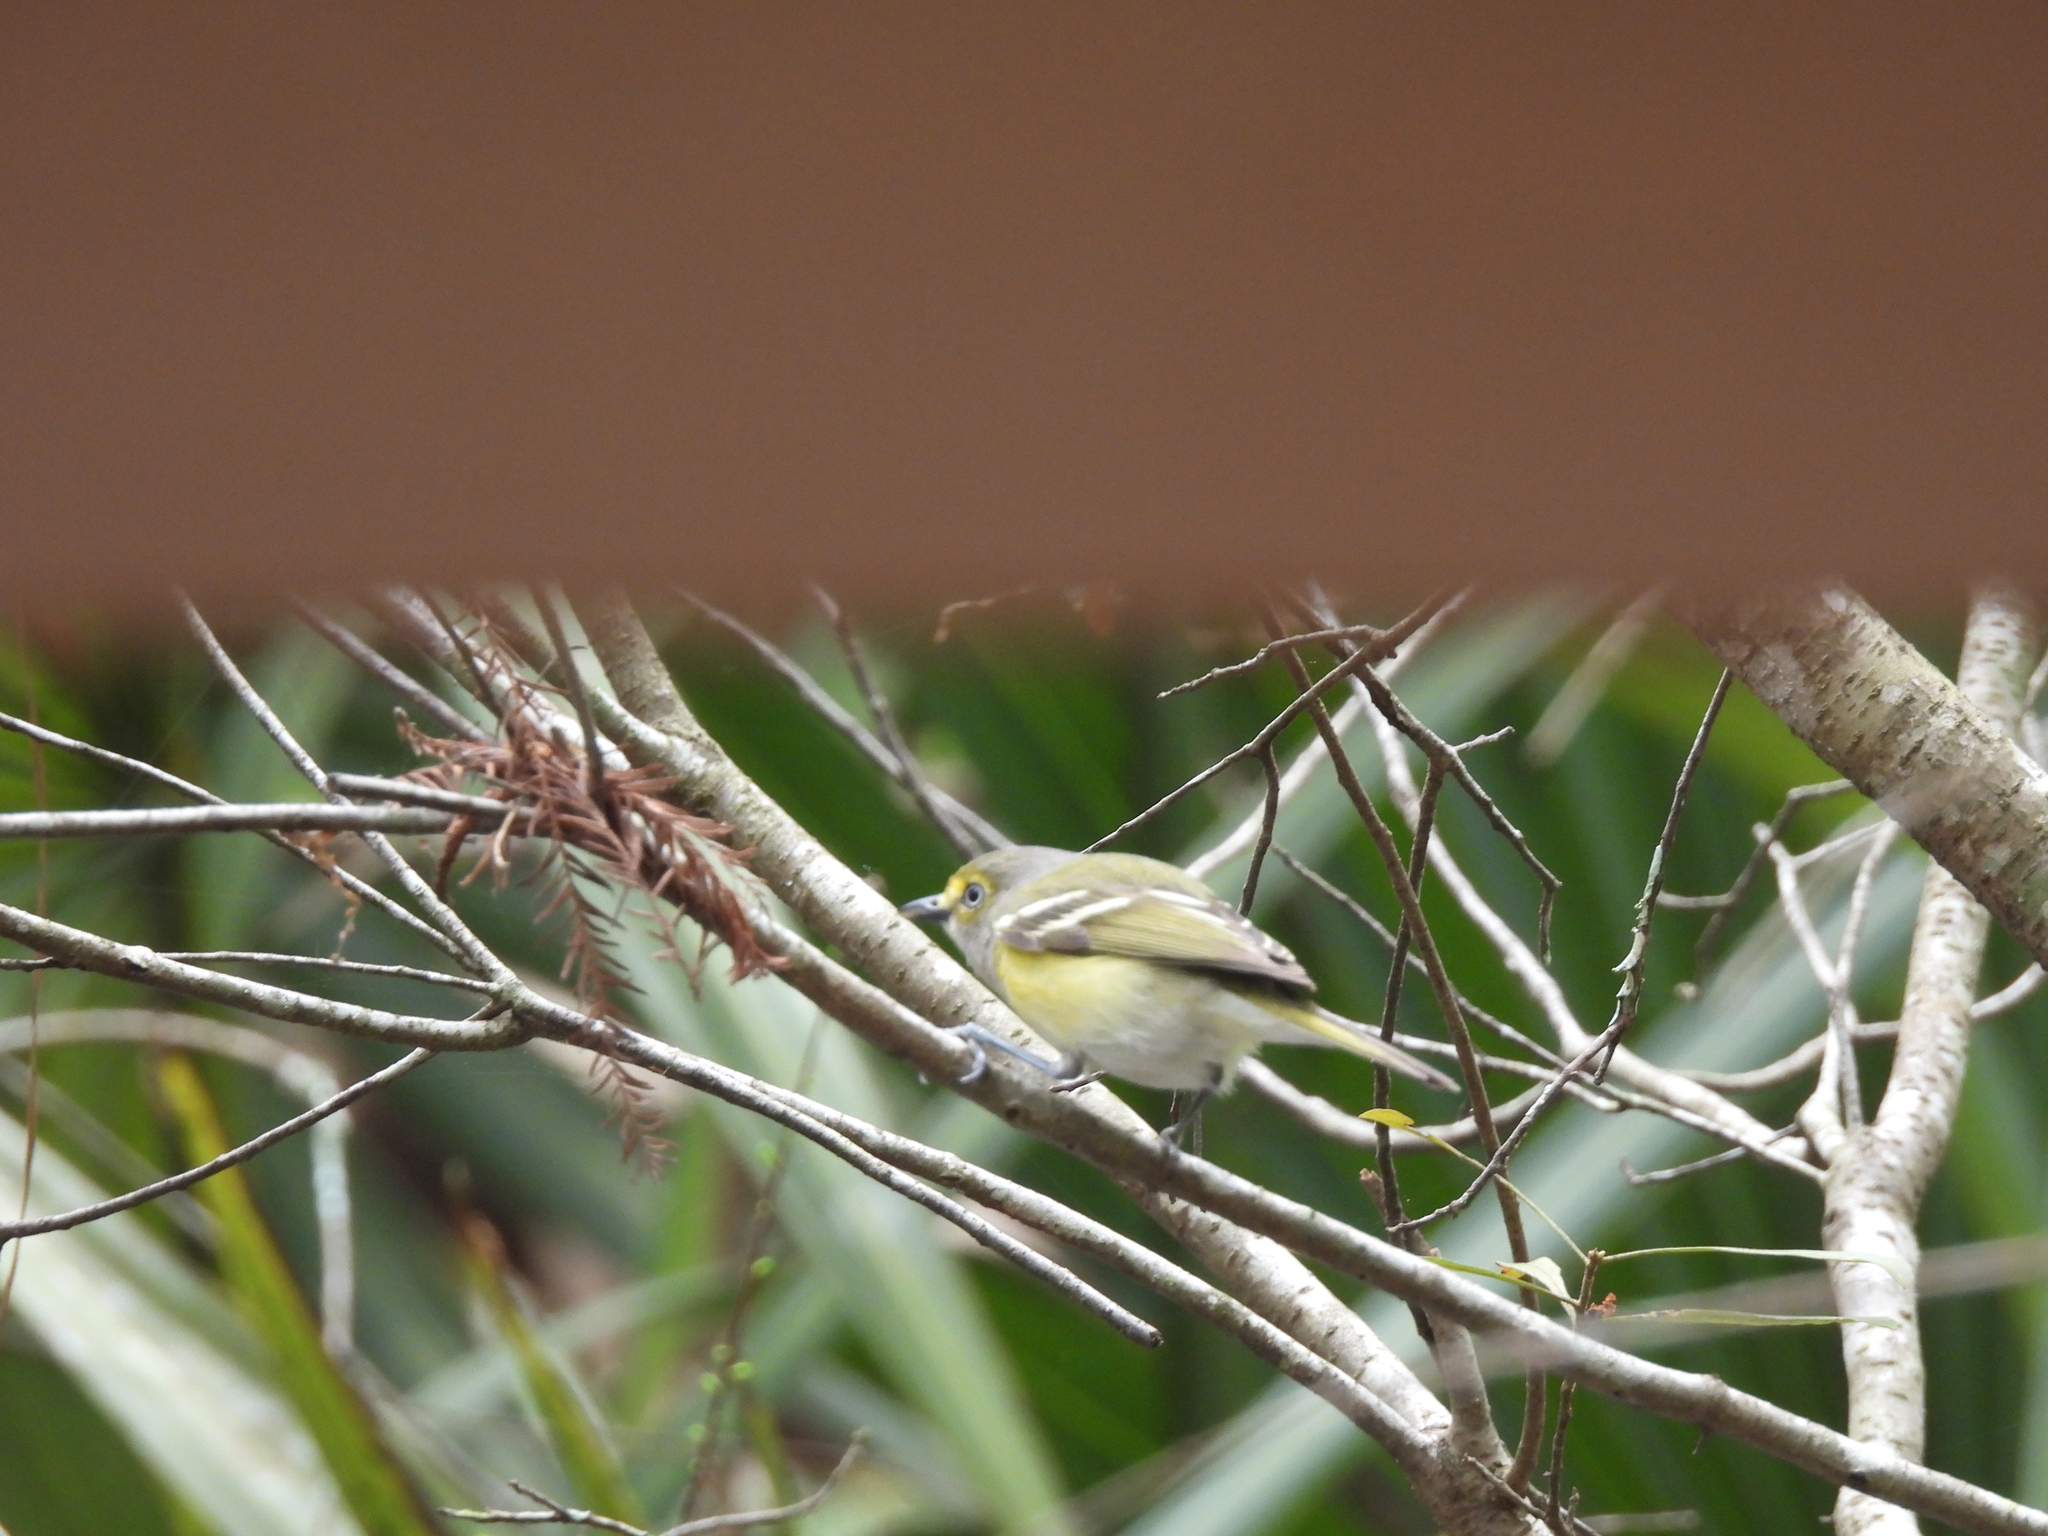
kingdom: Animalia
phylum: Chordata
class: Aves
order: Passeriformes
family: Vireonidae
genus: Vireo
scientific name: Vireo griseus
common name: White-eyed vireo
